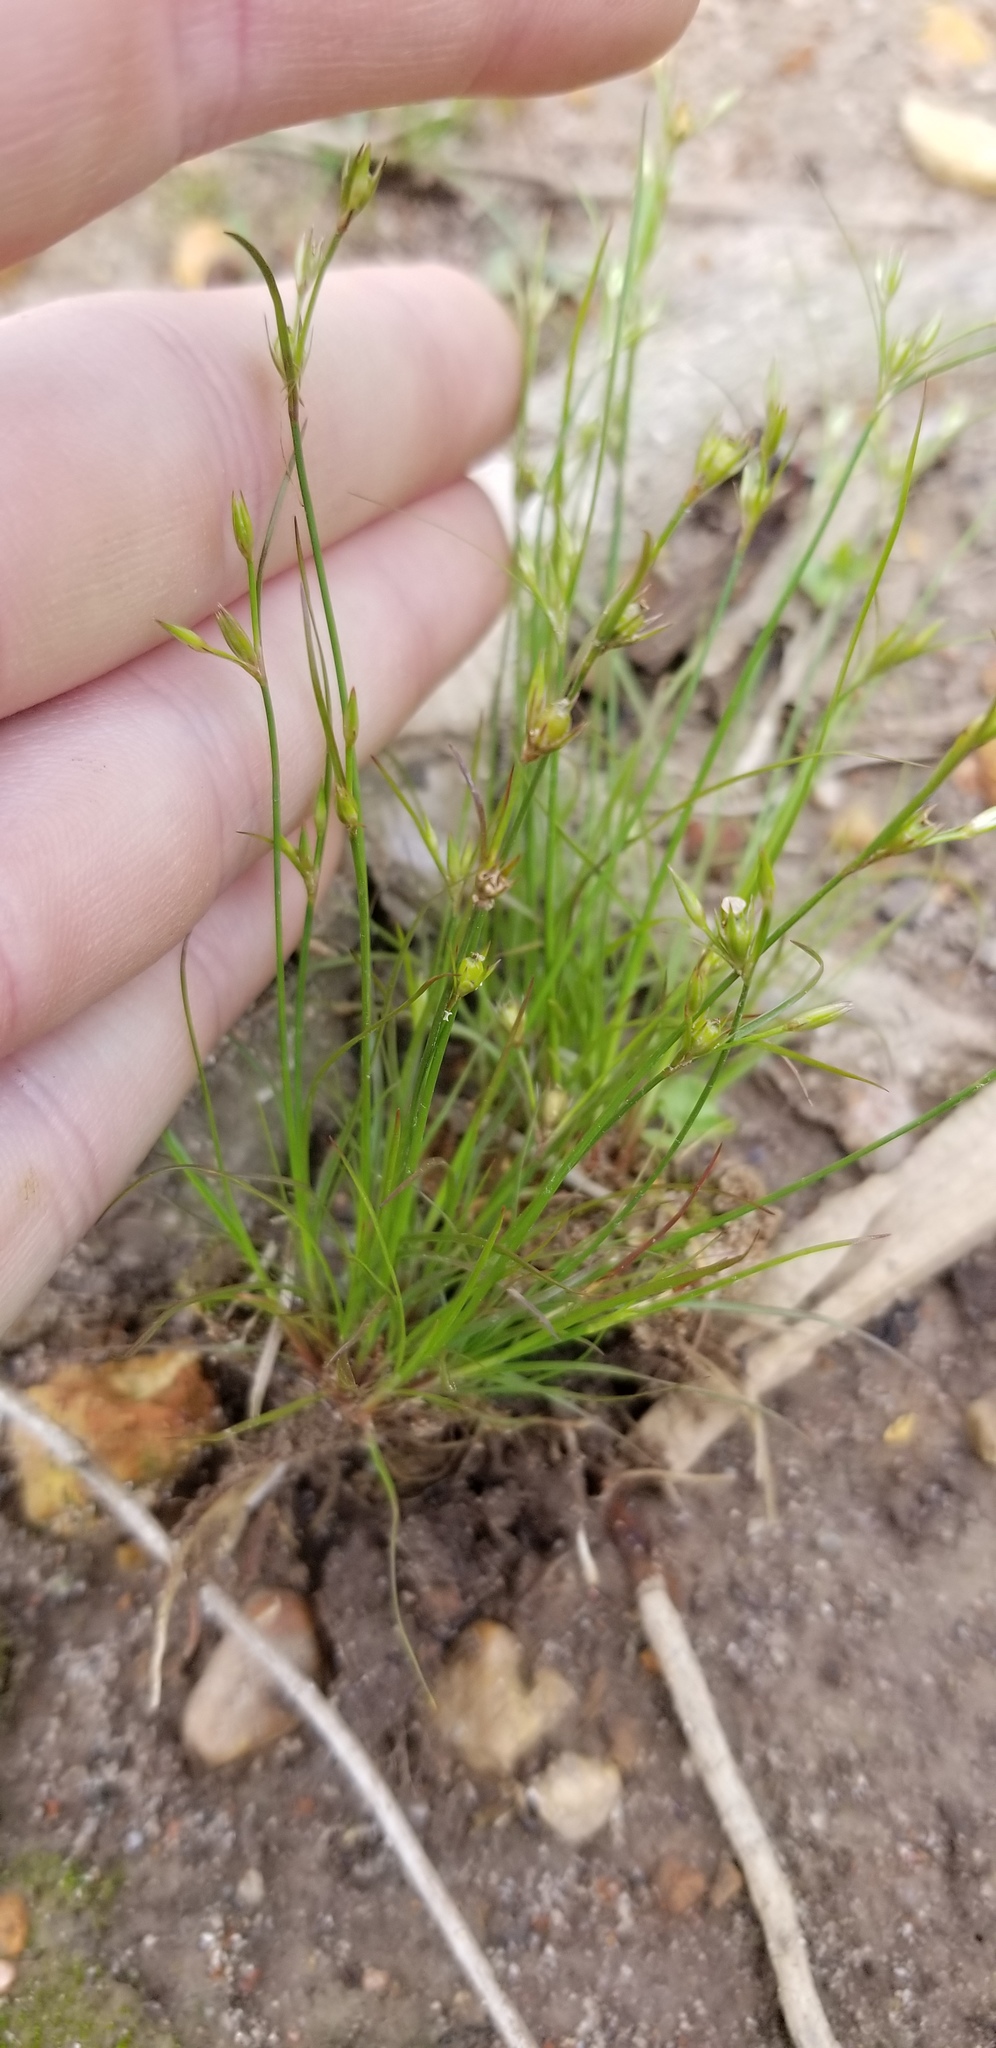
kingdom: Plantae
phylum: Tracheophyta
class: Liliopsida
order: Poales
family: Juncaceae
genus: Juncus
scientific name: Juncus bufonius
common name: Toad rush
